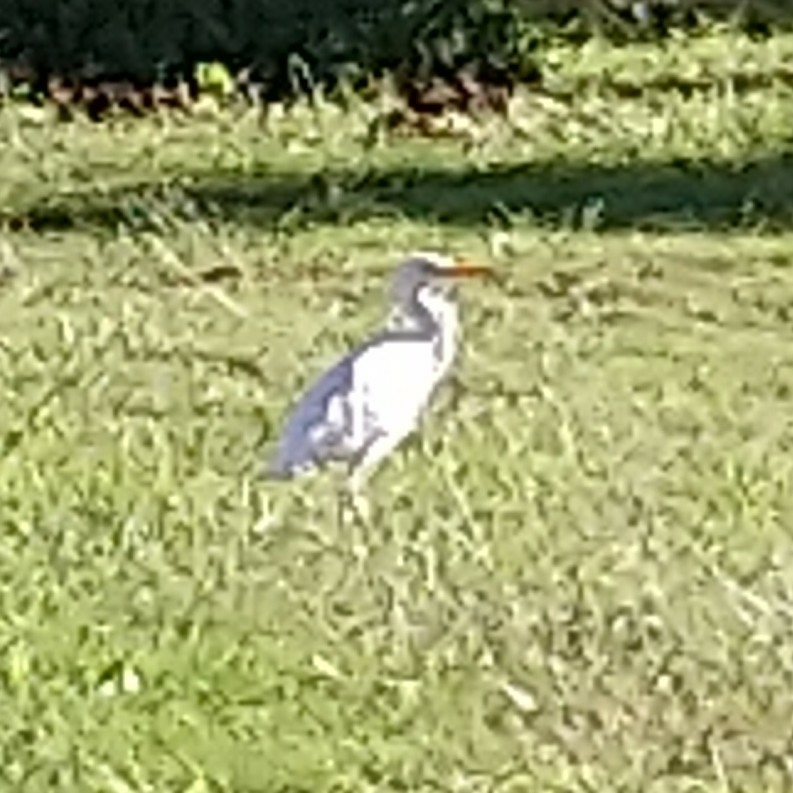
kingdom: Animalia
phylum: Chordata
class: Aves
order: Pelecaniformes
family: Ardeidae
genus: Bubulcus
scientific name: Bubulcus ibis
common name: Cattle egret
